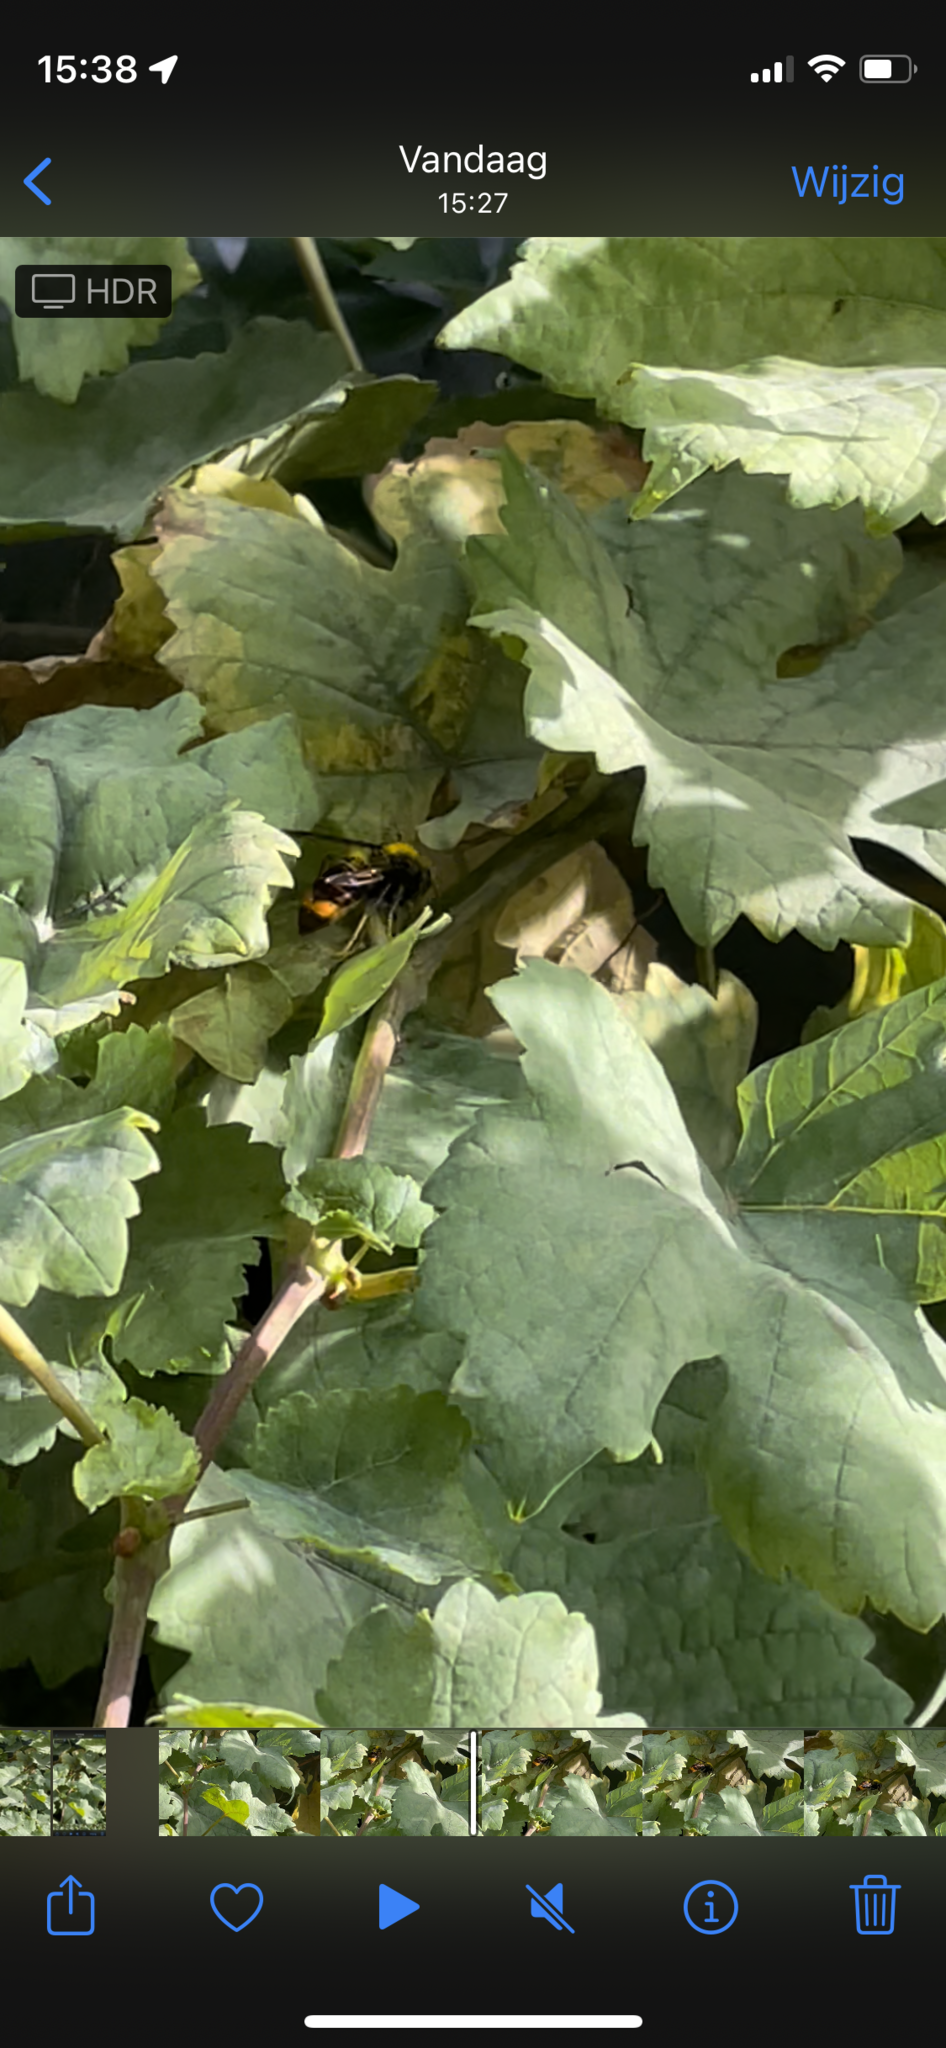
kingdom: Animalia
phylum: Arthropoda
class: Insecta
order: Hymenoptera
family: Vespidae
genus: Vespa
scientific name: Vespa velutina
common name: Asian hornet
